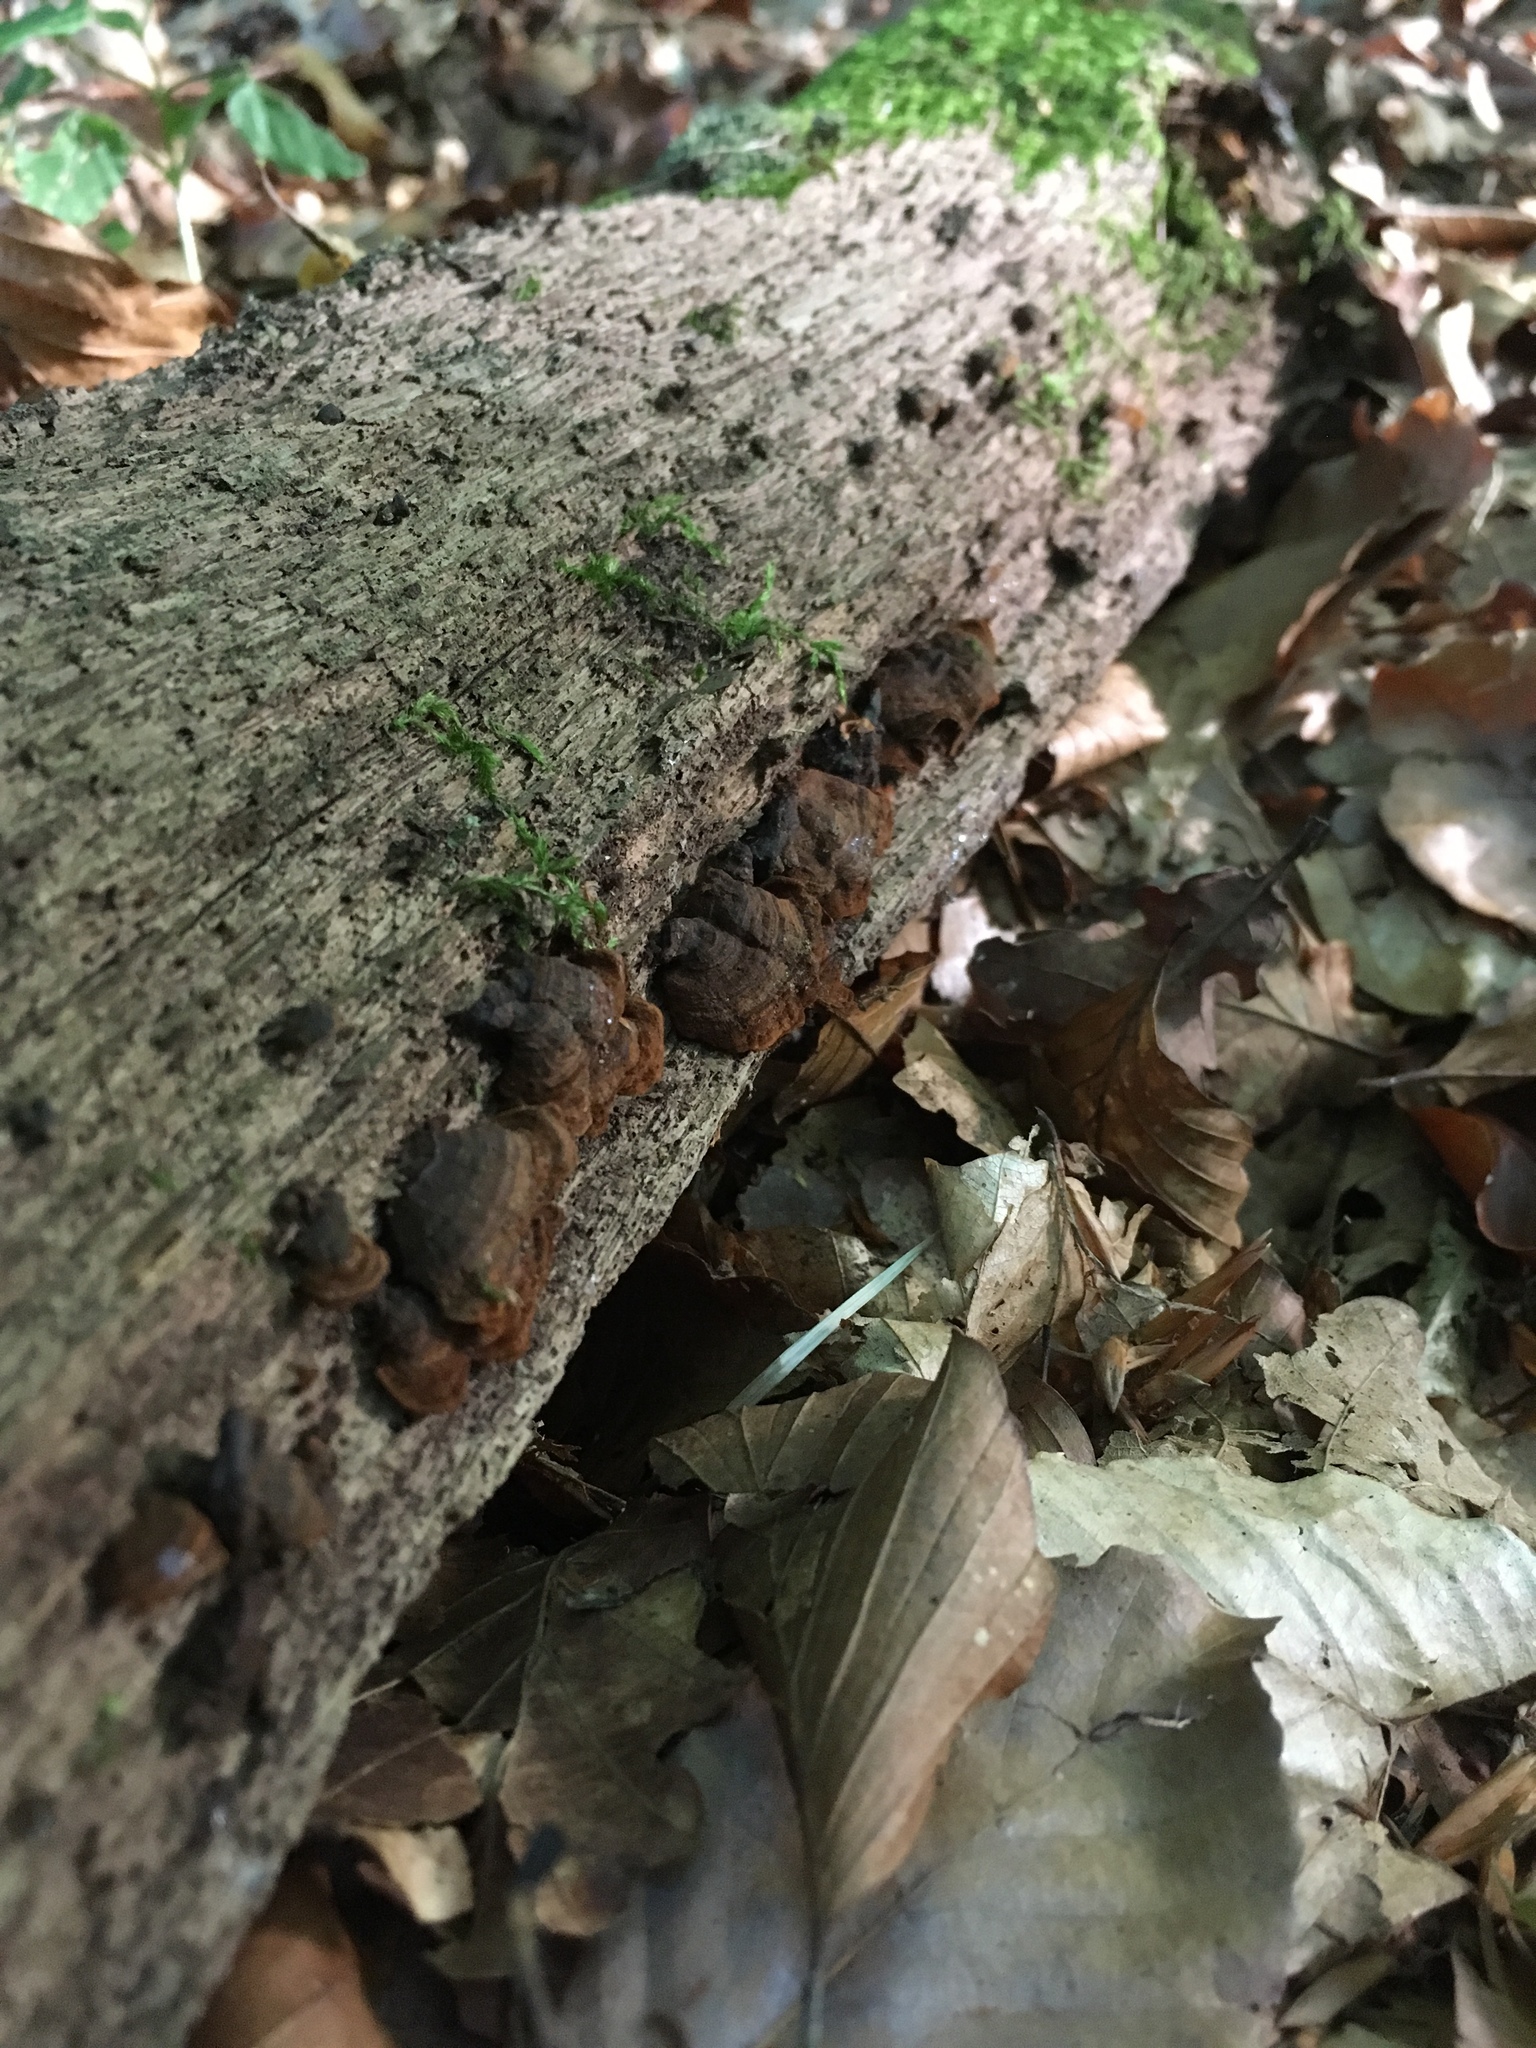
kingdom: Fungi
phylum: Basidiomycota
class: Agaricomycetes
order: Hymenochaetales
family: Hymenochaetaceae
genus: Hymenochaete
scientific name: Hymenochaete rubiginosa
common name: Oak curtain crust
